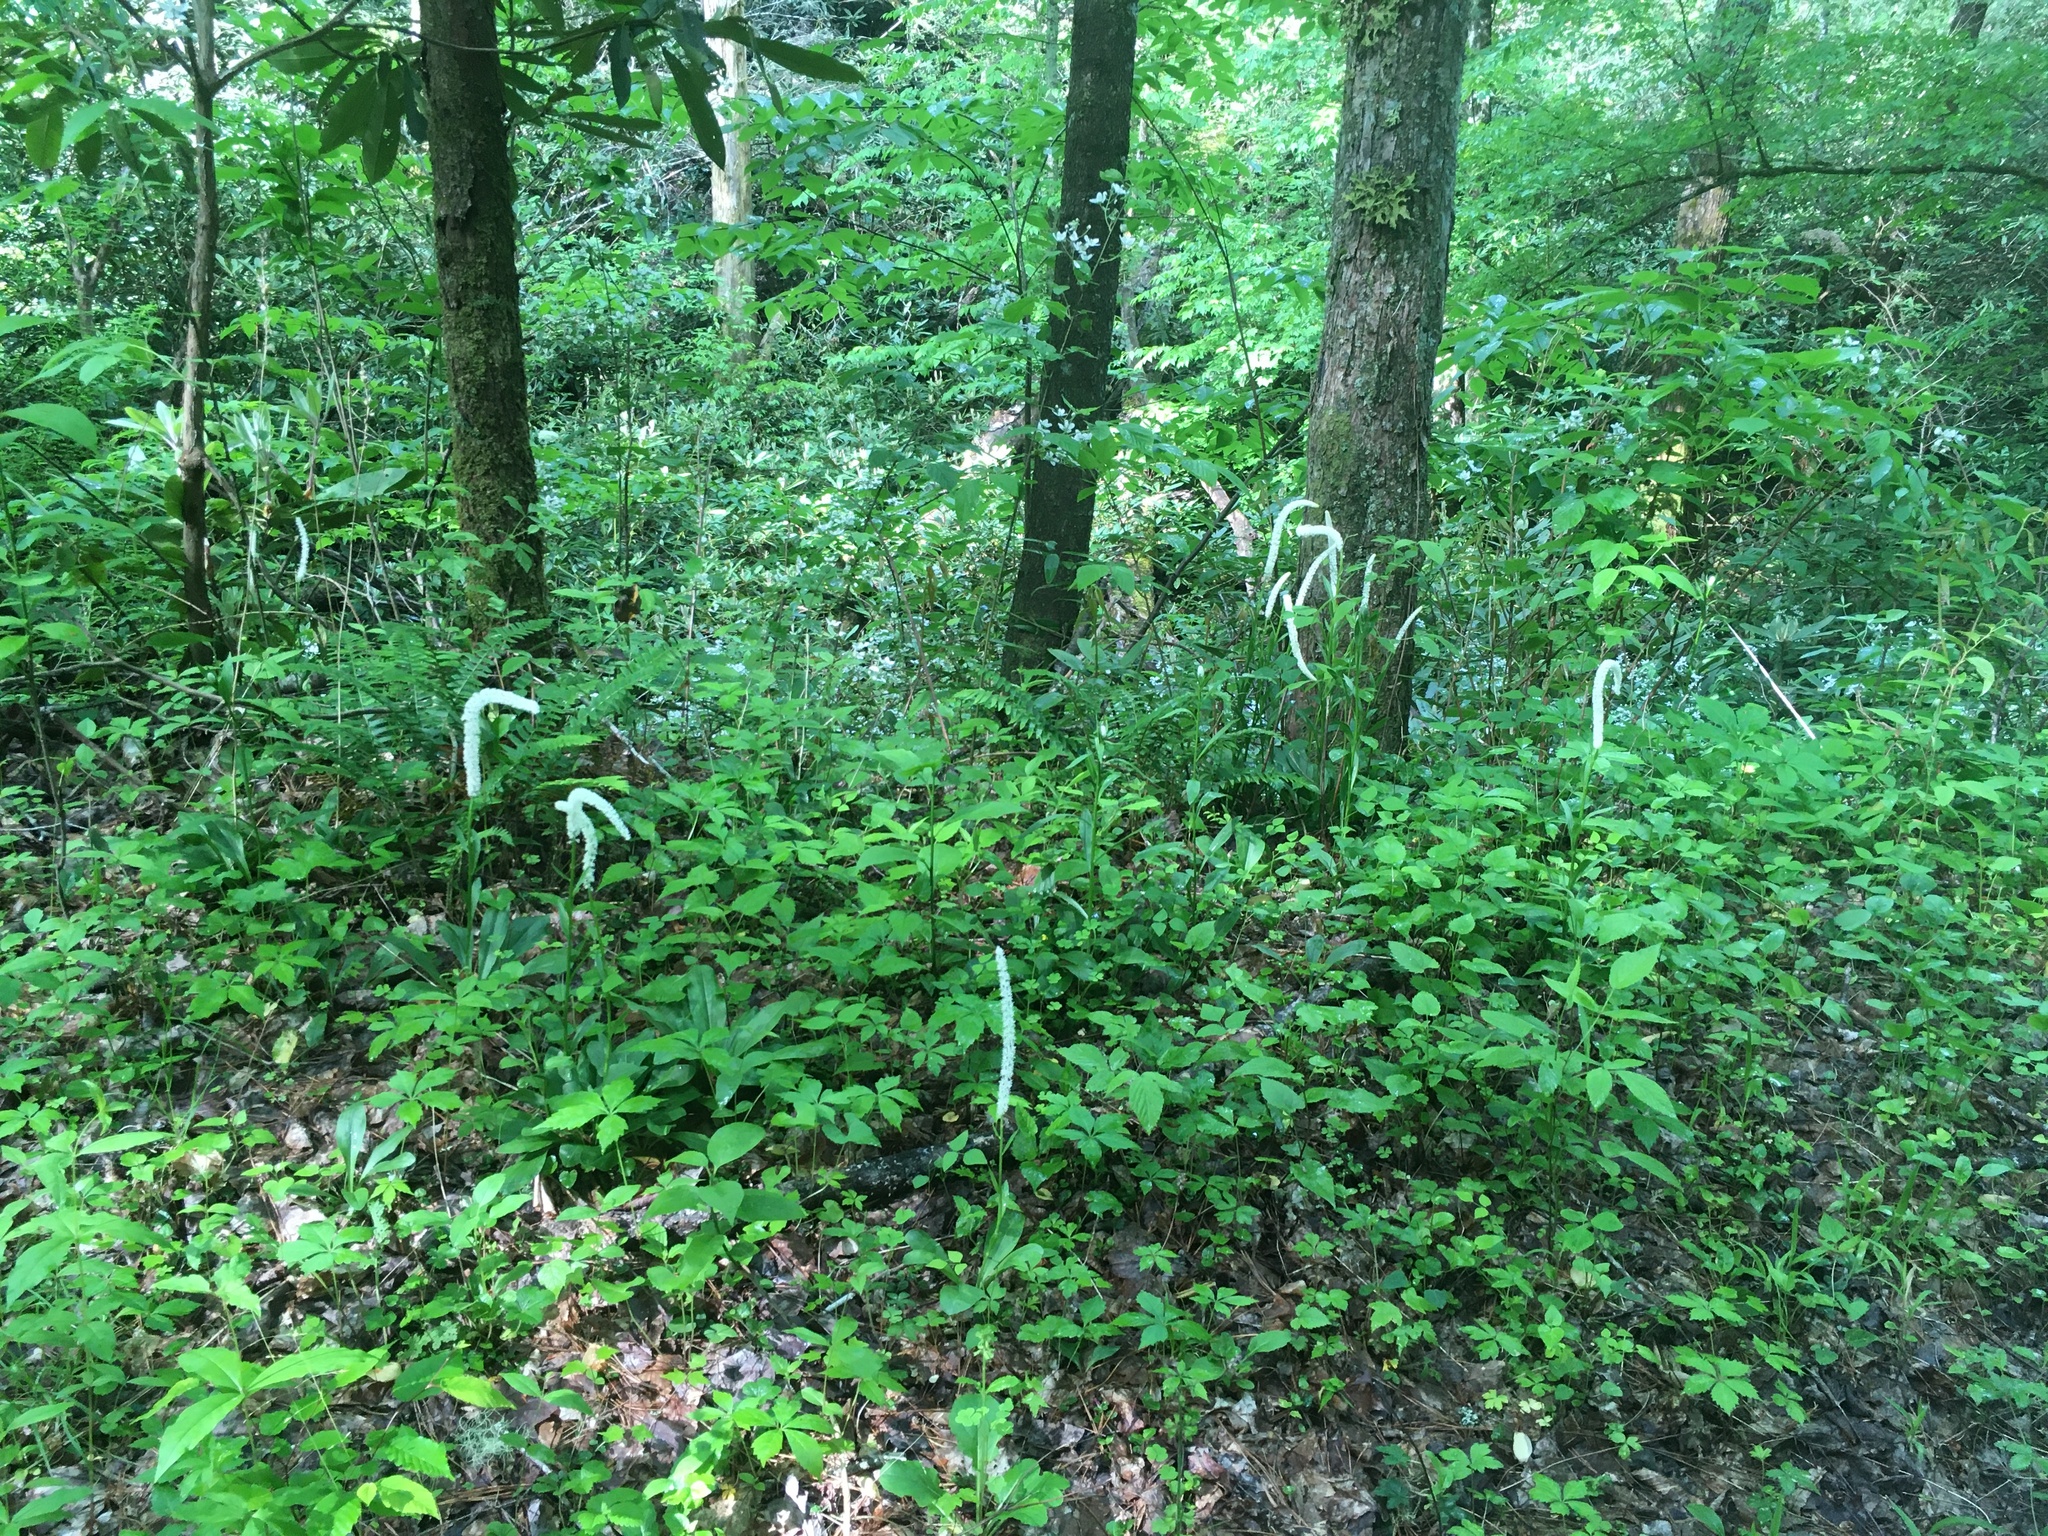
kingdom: Plantae
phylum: Tracheophyta
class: Liliopsida
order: Liliales
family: Melanthiaceae
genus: Chamaelirium
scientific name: Chamaelirium luteum
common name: Fairy-wand
